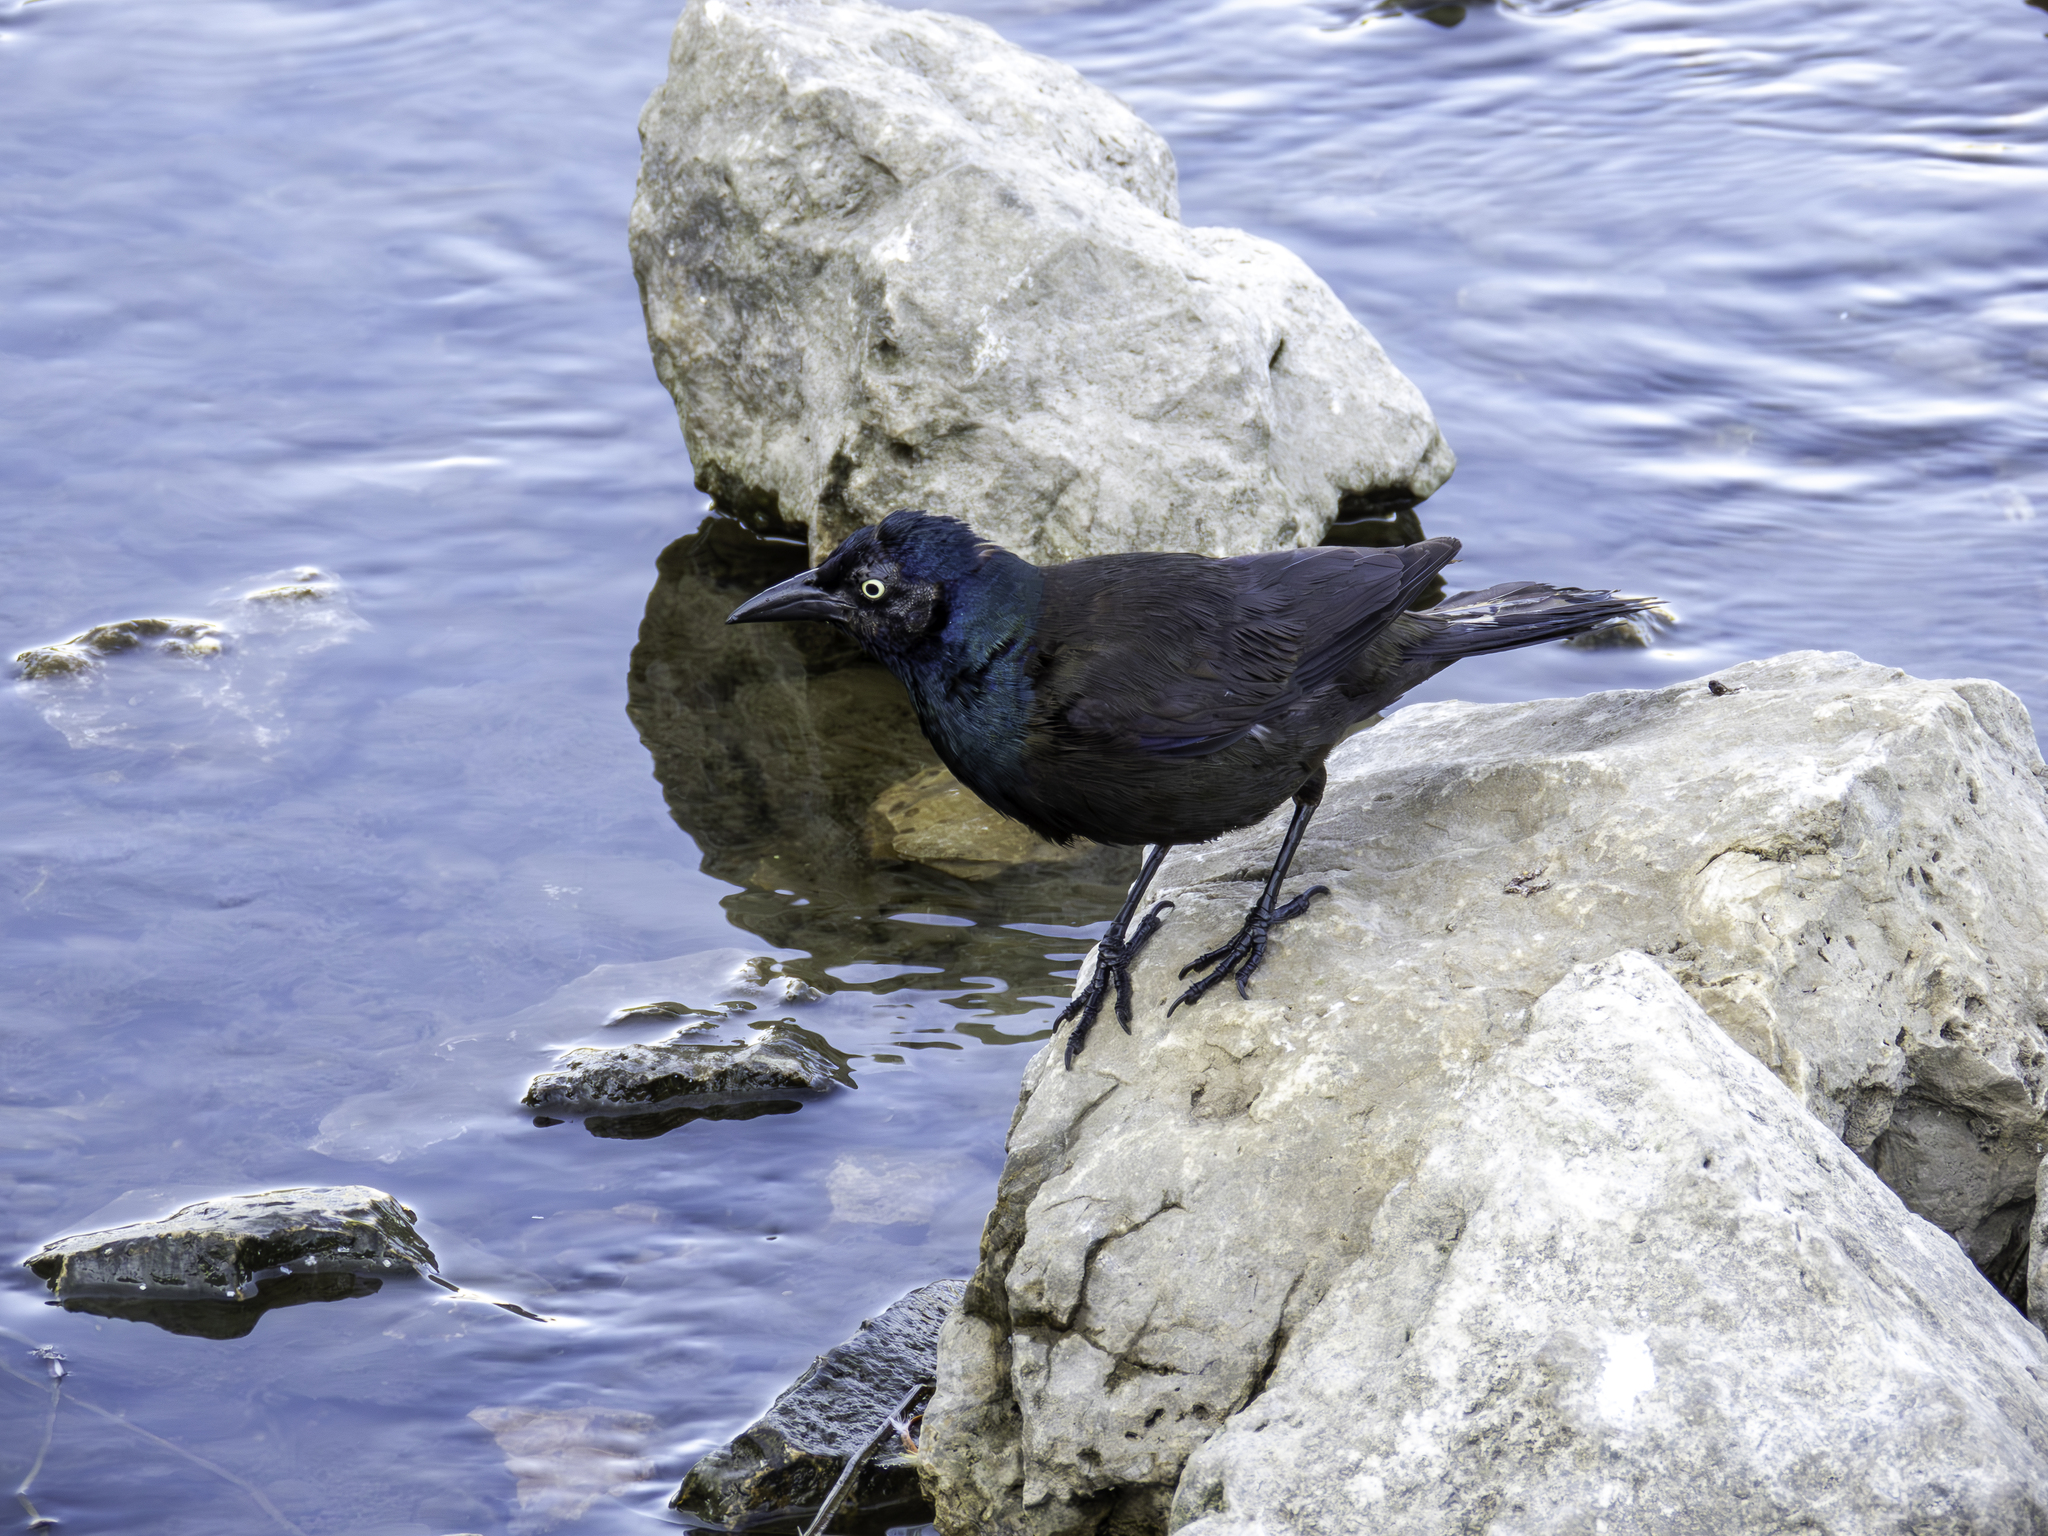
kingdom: Animalia
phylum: Chordata
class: Aves
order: Passeriformes
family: Icteridae
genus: Quiscalus
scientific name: Quiscalus quiscula
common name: Common grackle
